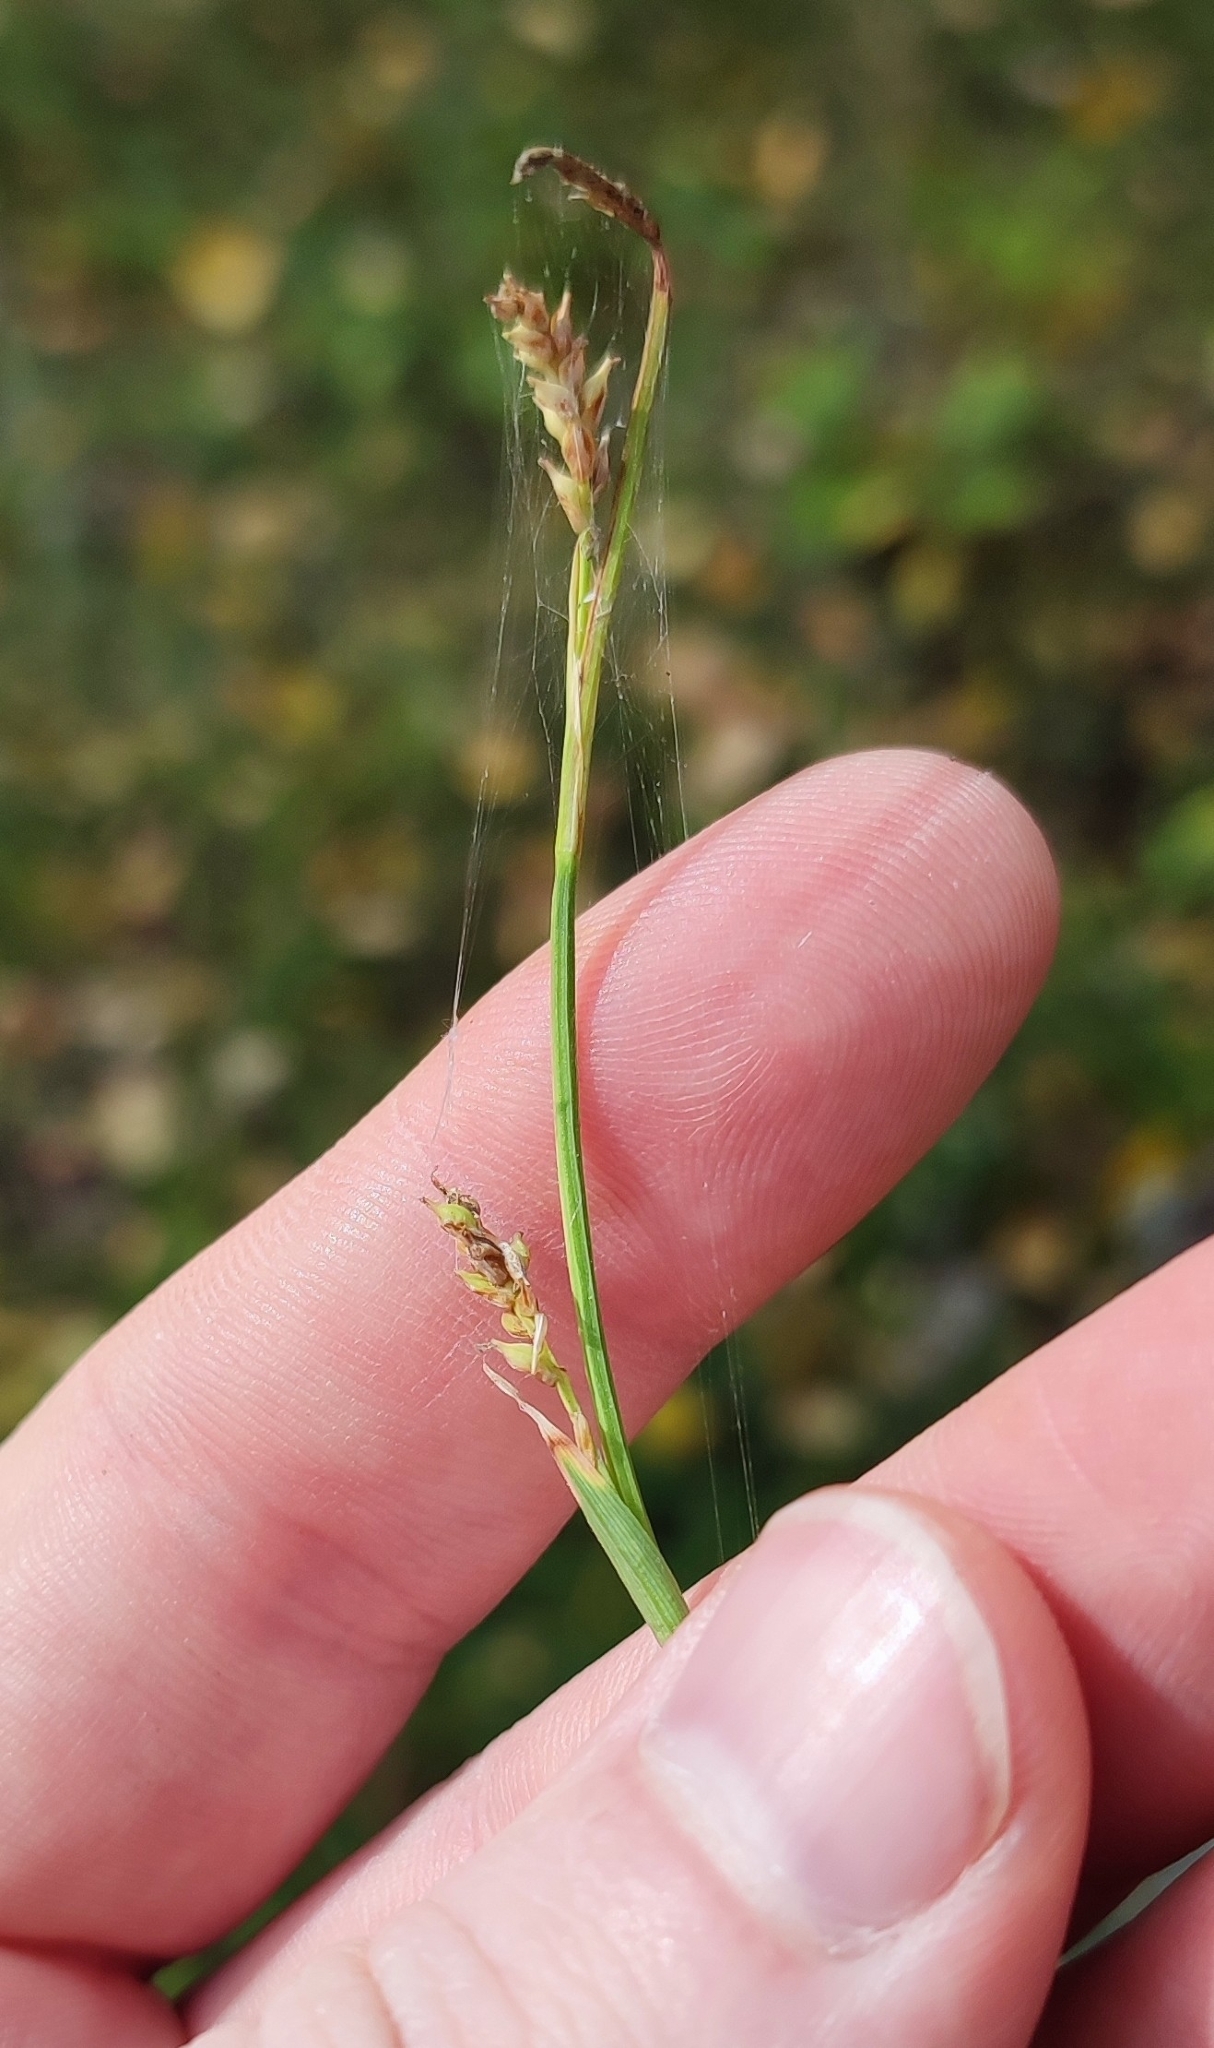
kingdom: Plantae
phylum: Tracheophyta
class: Liliopsida
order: Poales
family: Cyperaceae
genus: Carex
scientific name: Carex vaginata
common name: Sheathed sedge
